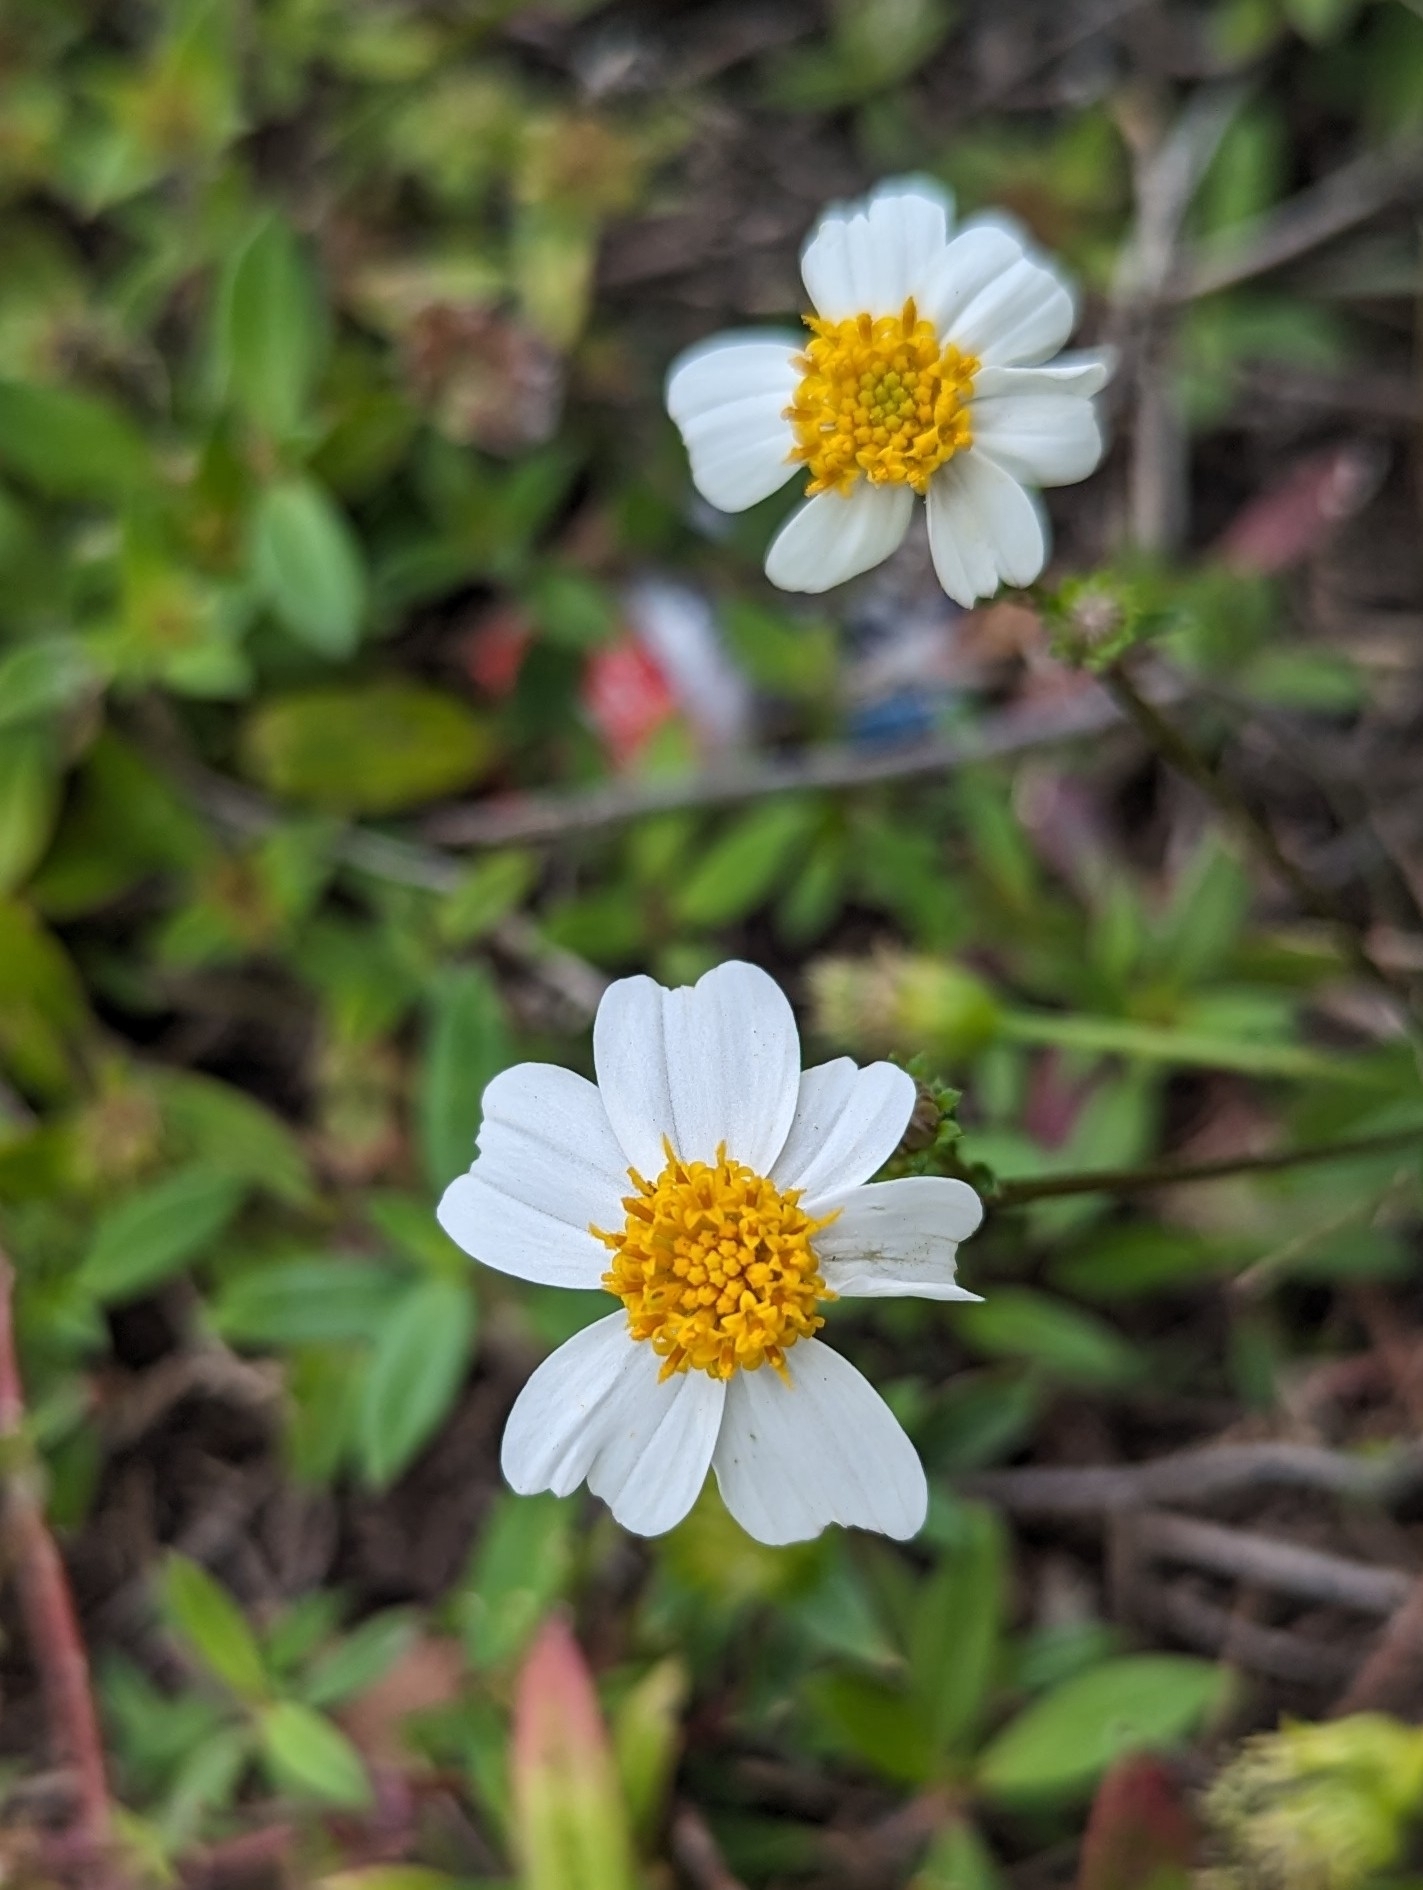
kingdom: Plantae
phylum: Tracheophyta
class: Magnoliopsida
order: Asterales
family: Asteraceae
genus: Bidens
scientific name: Bidens alba
